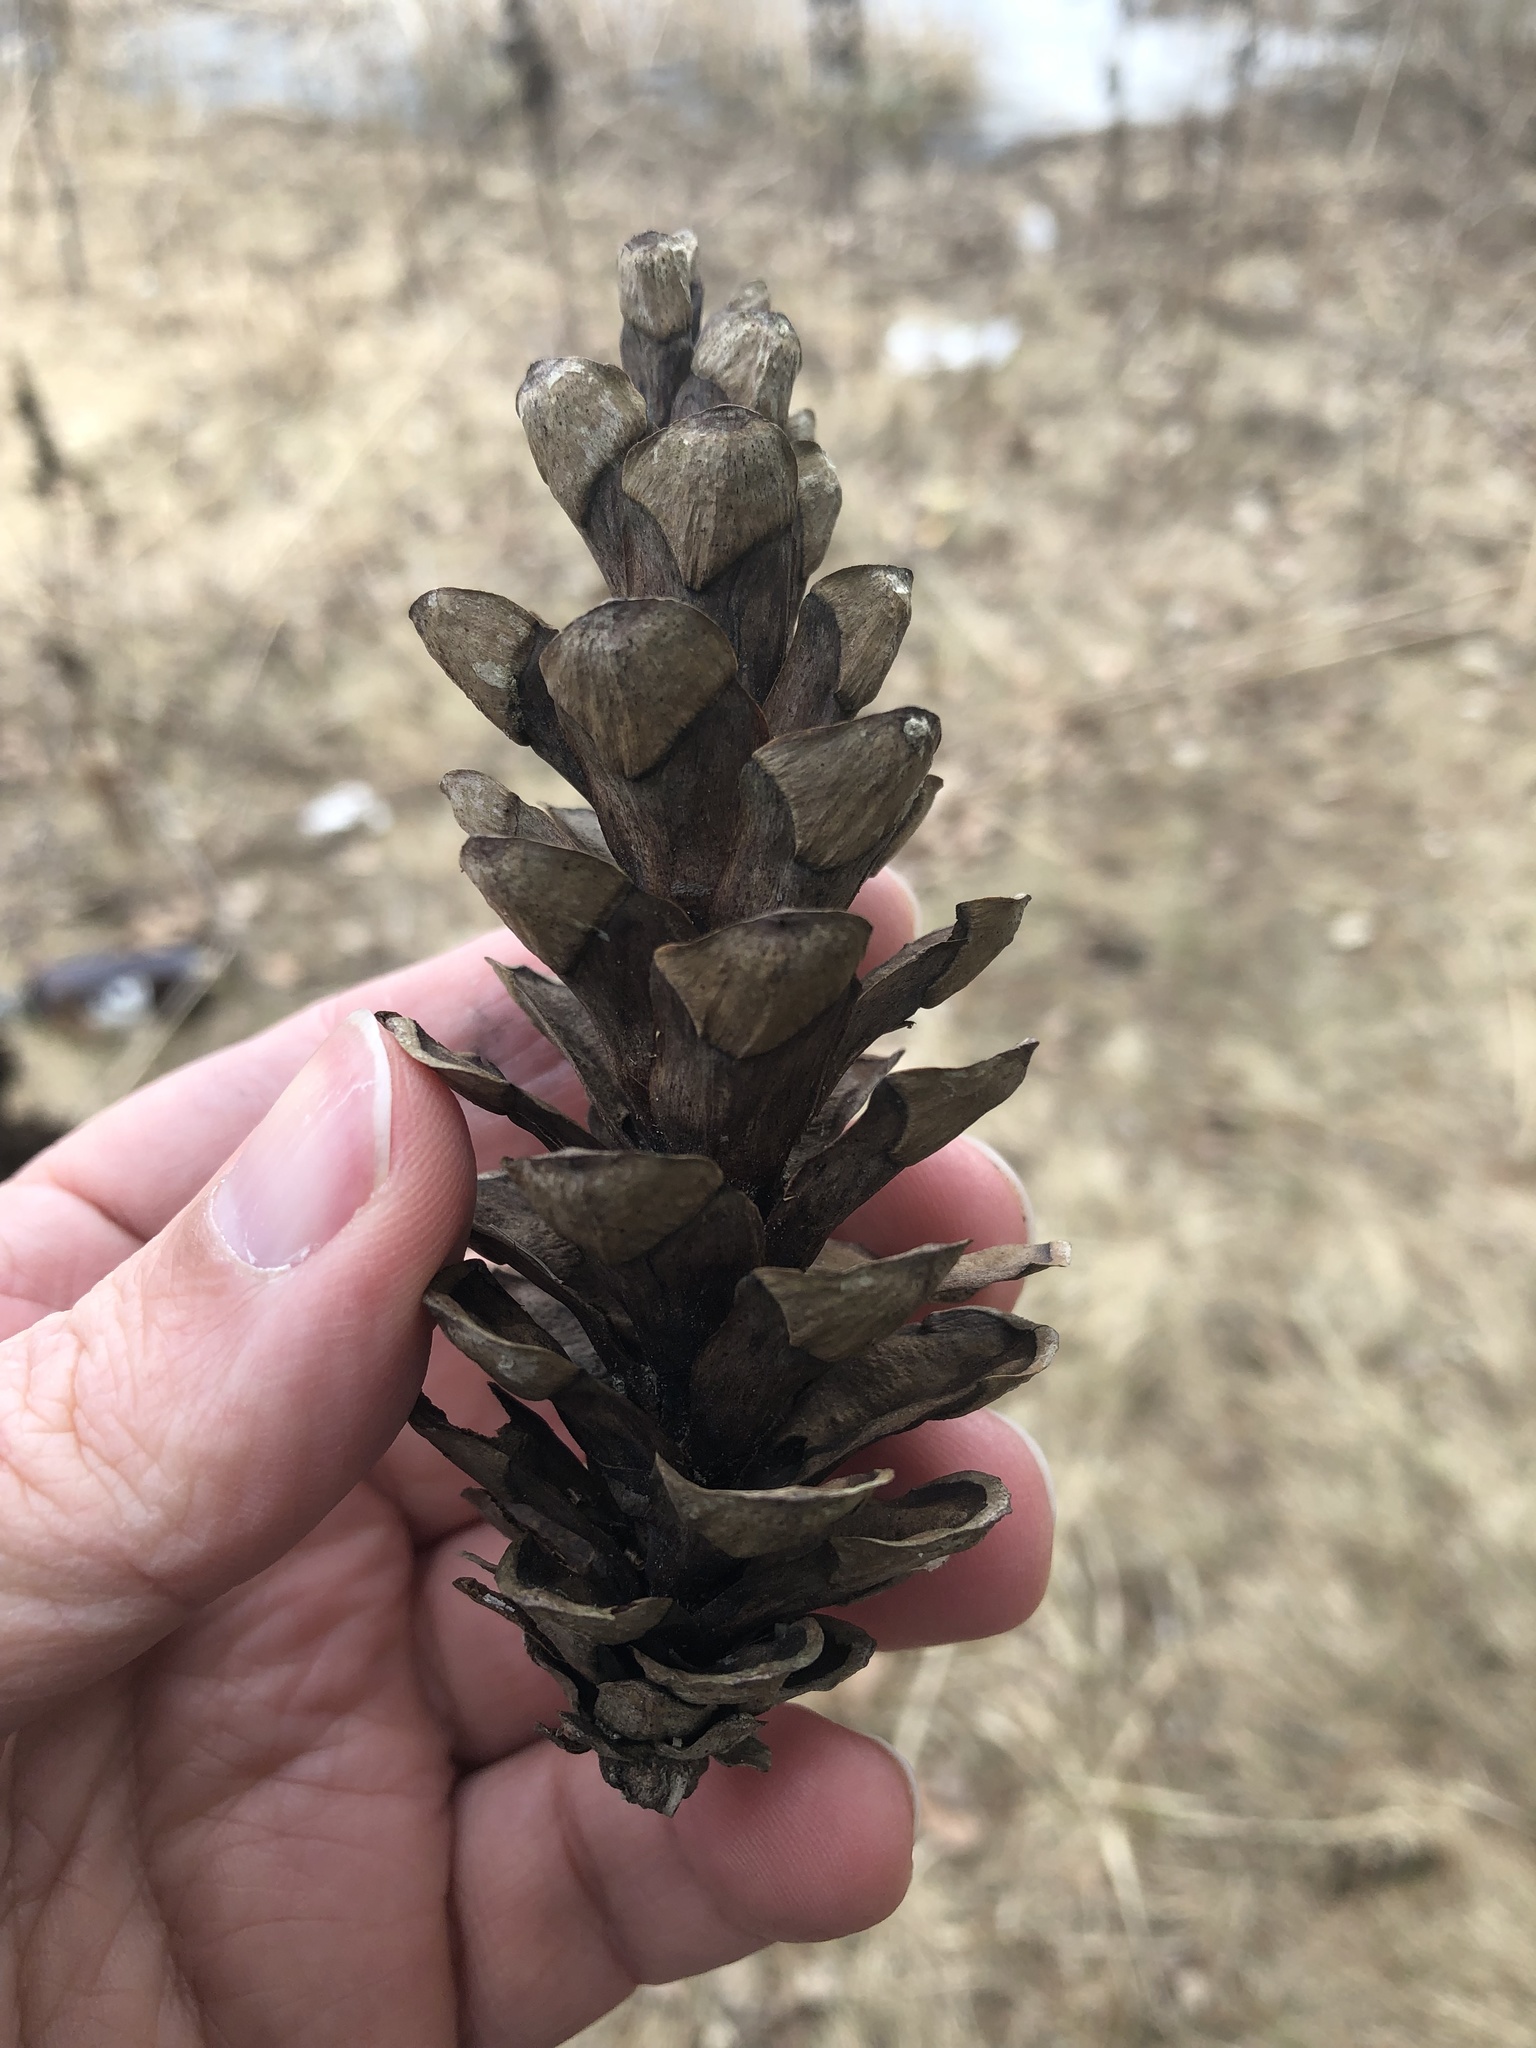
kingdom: Plantae
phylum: Tracheophyta
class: Pinopsida
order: Pinales
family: Pinaceae
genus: Pinus
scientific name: Pinus strobus
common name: Weymouth pine
